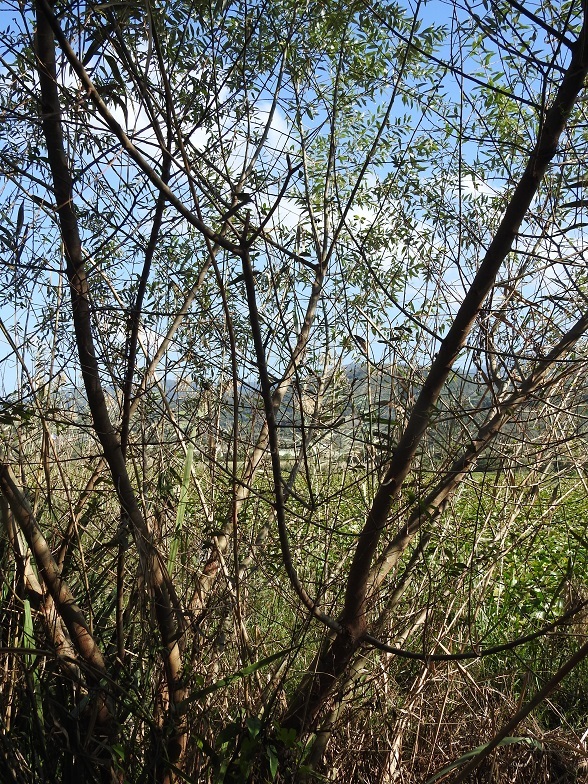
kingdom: Plantae
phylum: Tracheophyta
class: Magnoliopsida
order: Malpighiales
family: Salicaceae
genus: Salix
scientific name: Salix alba
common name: White willow
